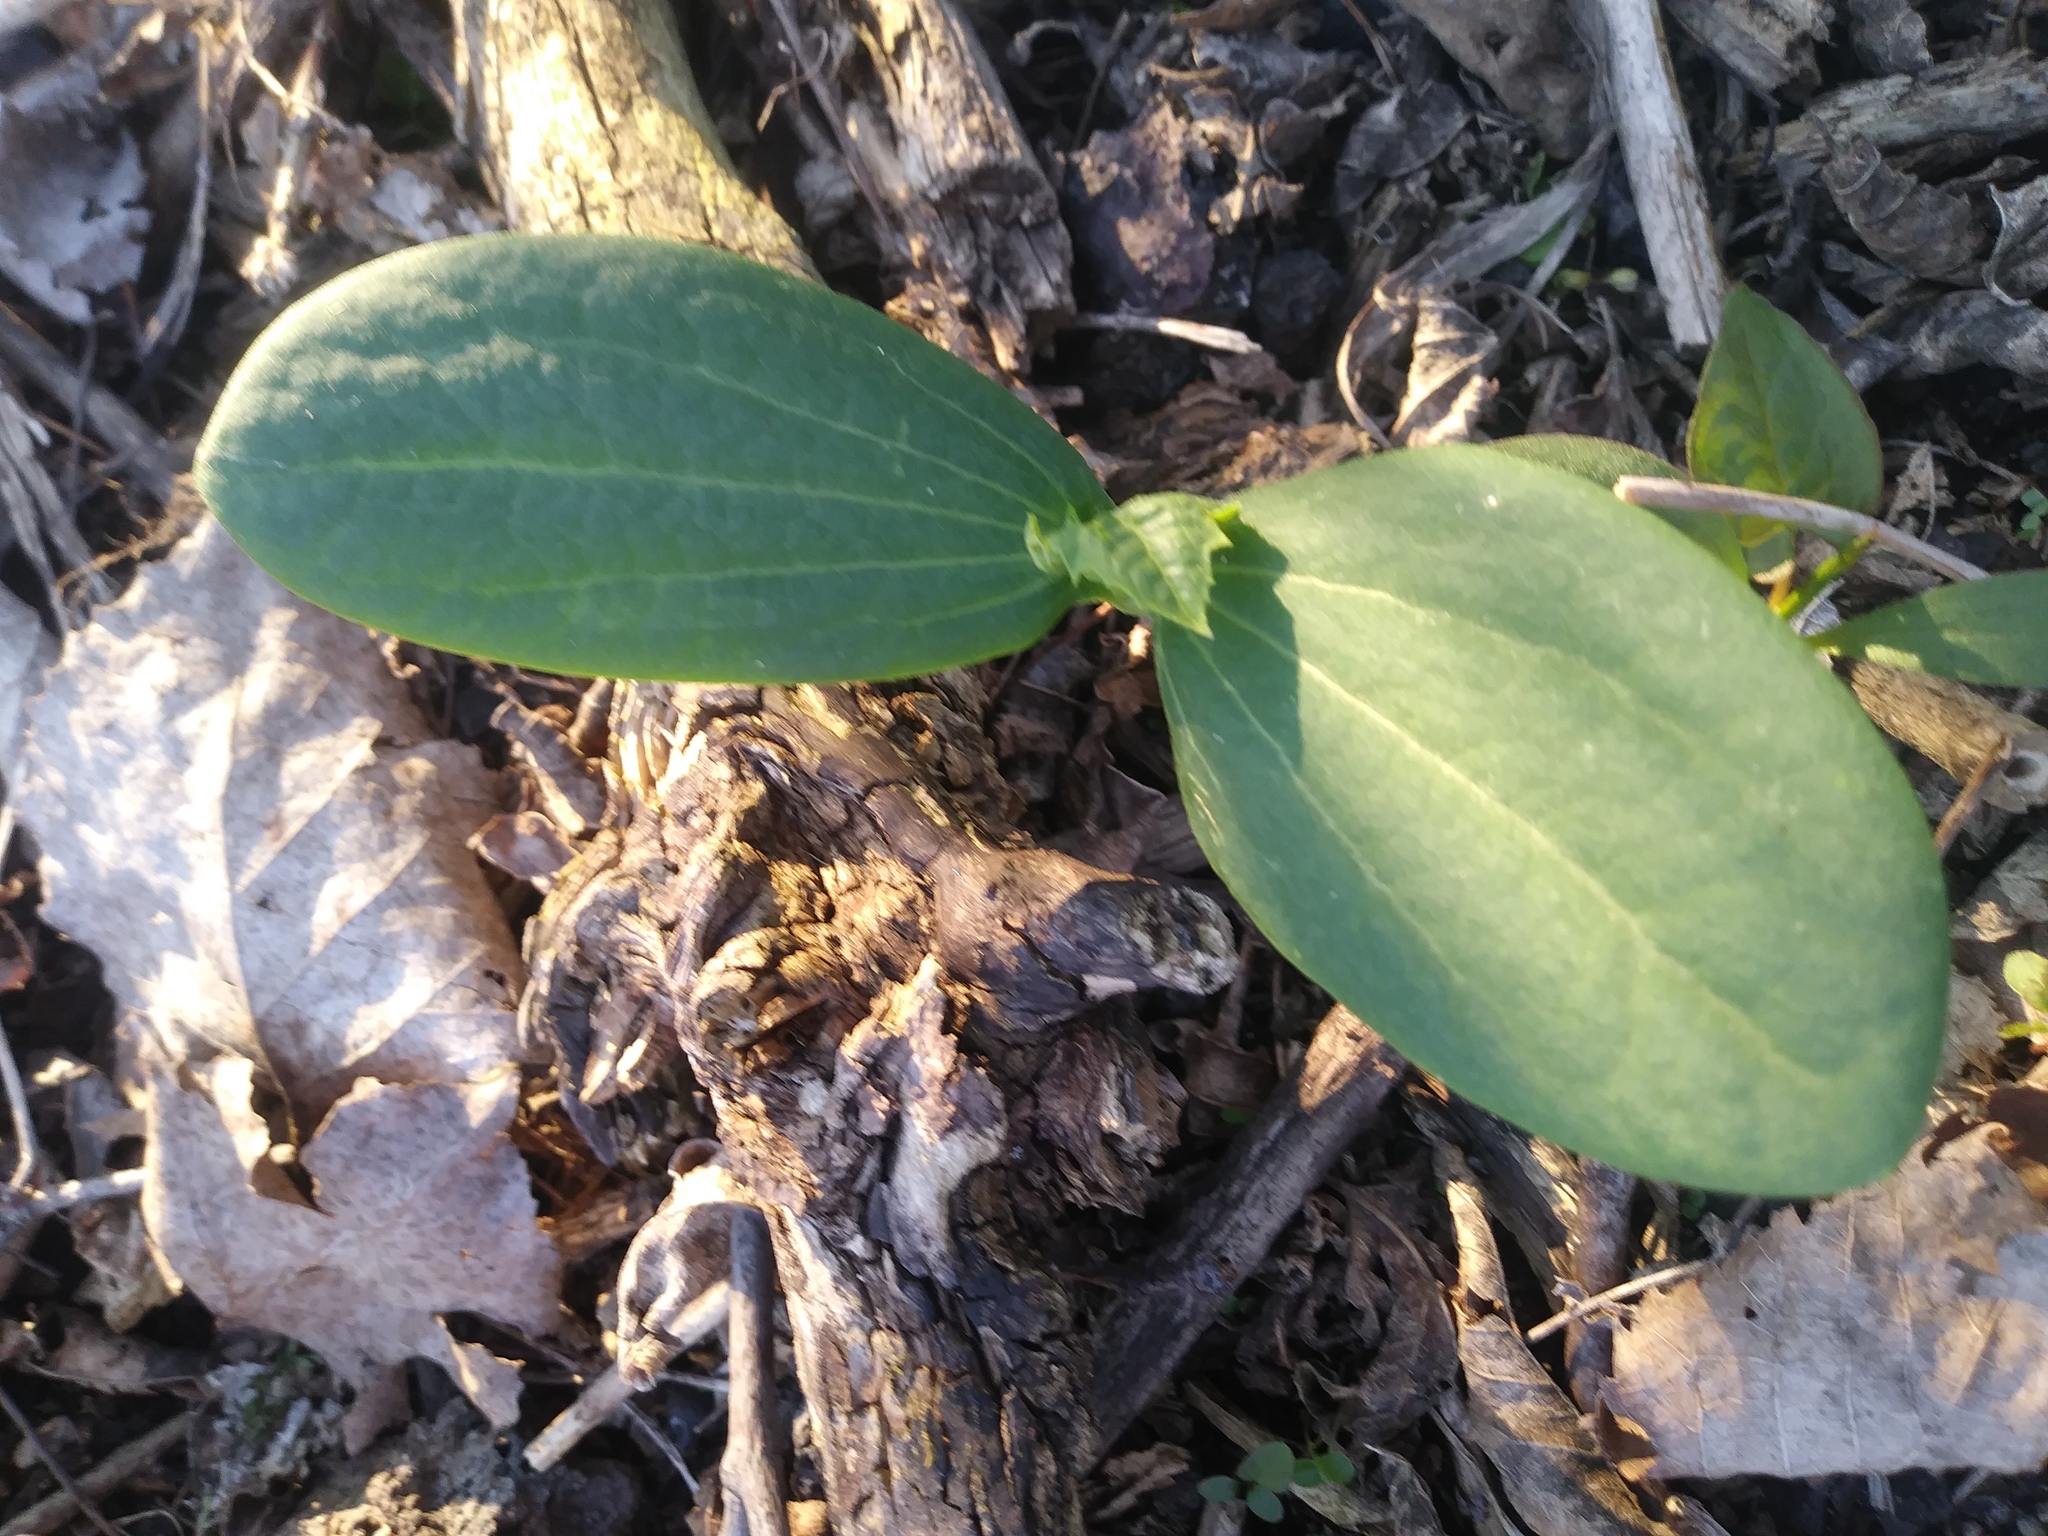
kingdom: Plantae
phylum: Tracheophyta
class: Magnoliopsida
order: Cucurbitales
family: Cucurbitaceae
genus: Echinocystis
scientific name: Echinocystis lobata
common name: Wild cucumber
